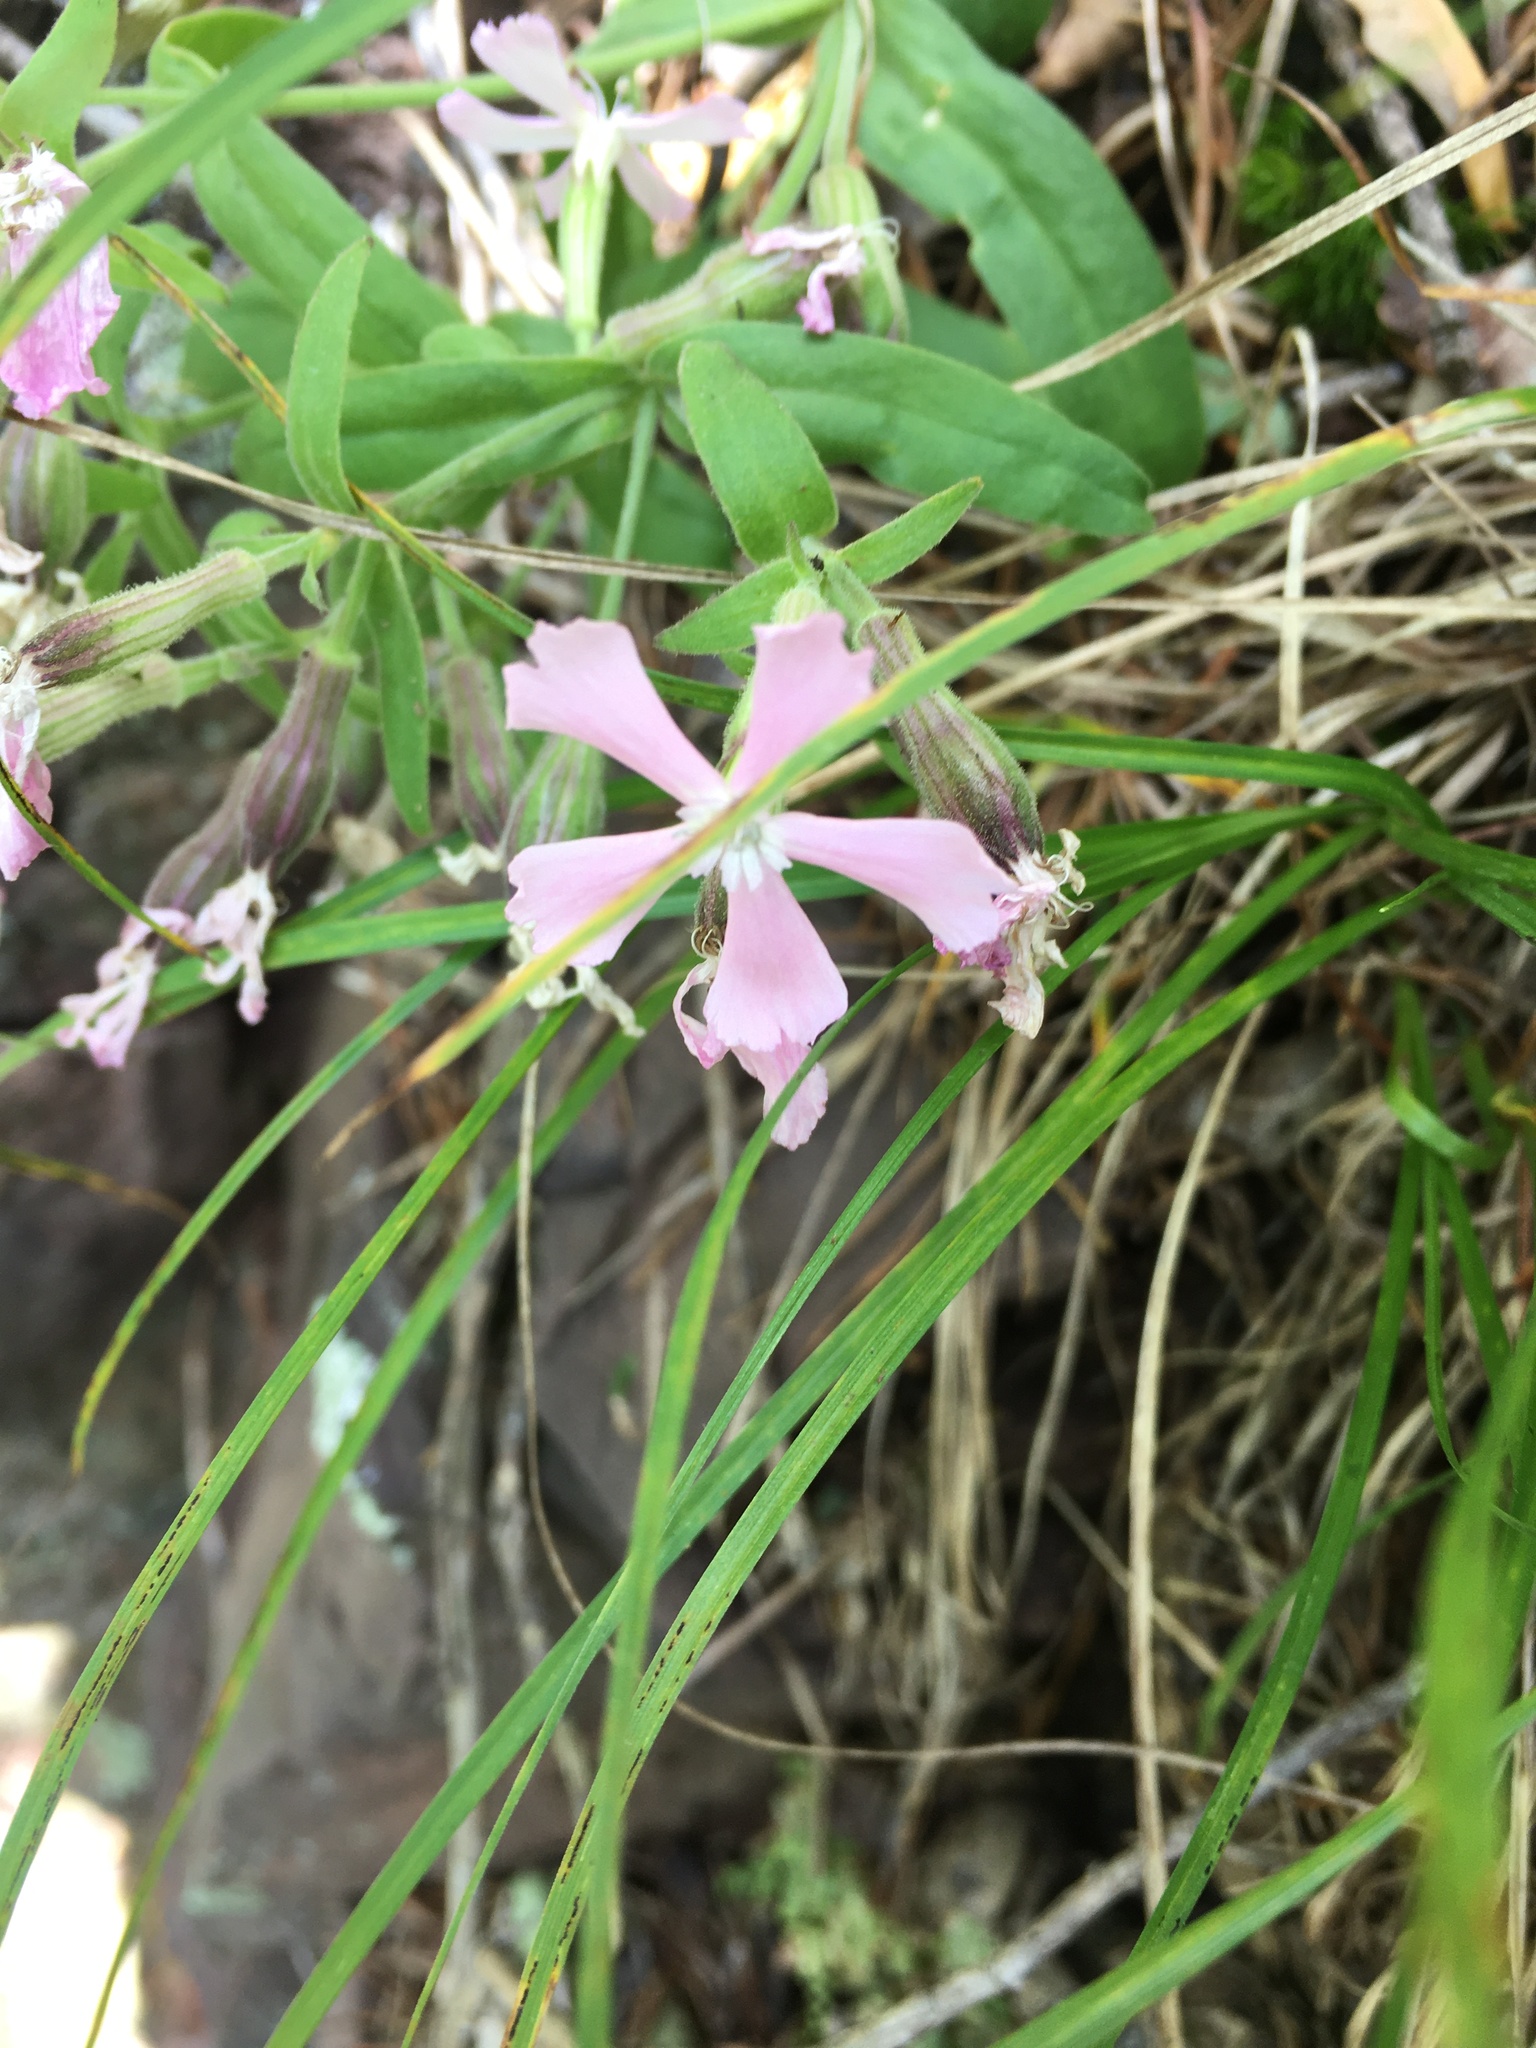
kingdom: Plantae
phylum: Tracheophyta
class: Magnoliopsida
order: Caryophyllales
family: Caryophyllaceae
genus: Silene
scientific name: Silene caroliniana
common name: Sticky catchfly
